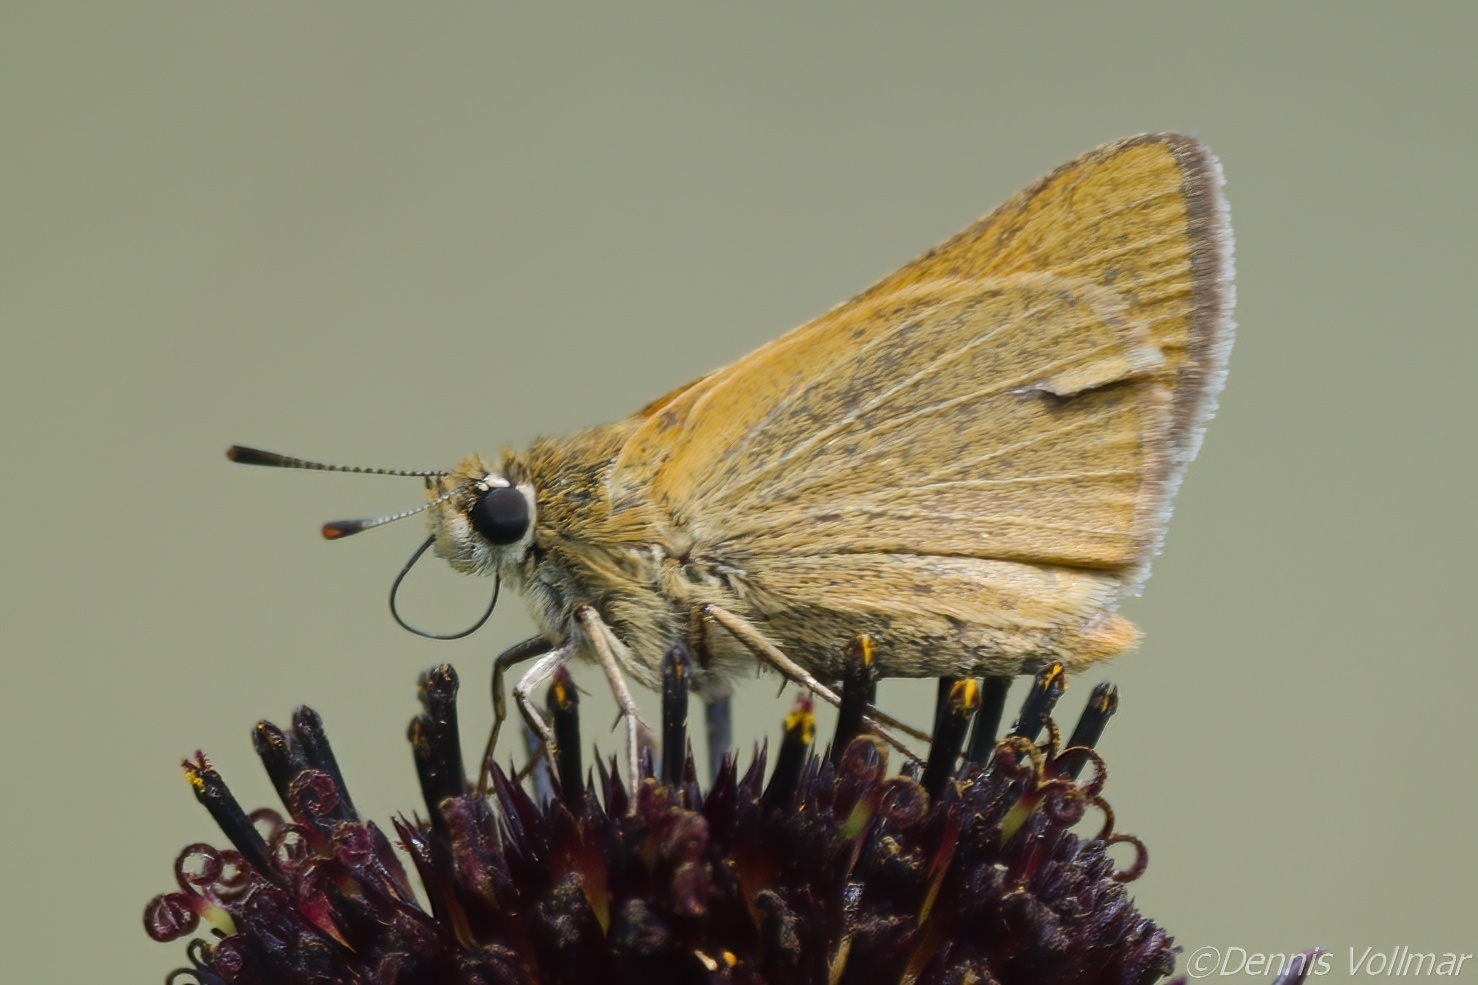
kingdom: Animalia
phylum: Arthropoda
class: Insecta
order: Lepidoptera
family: Hesperiidae
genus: Atrytone
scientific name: Atrytone arogos
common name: Arogos skipper
